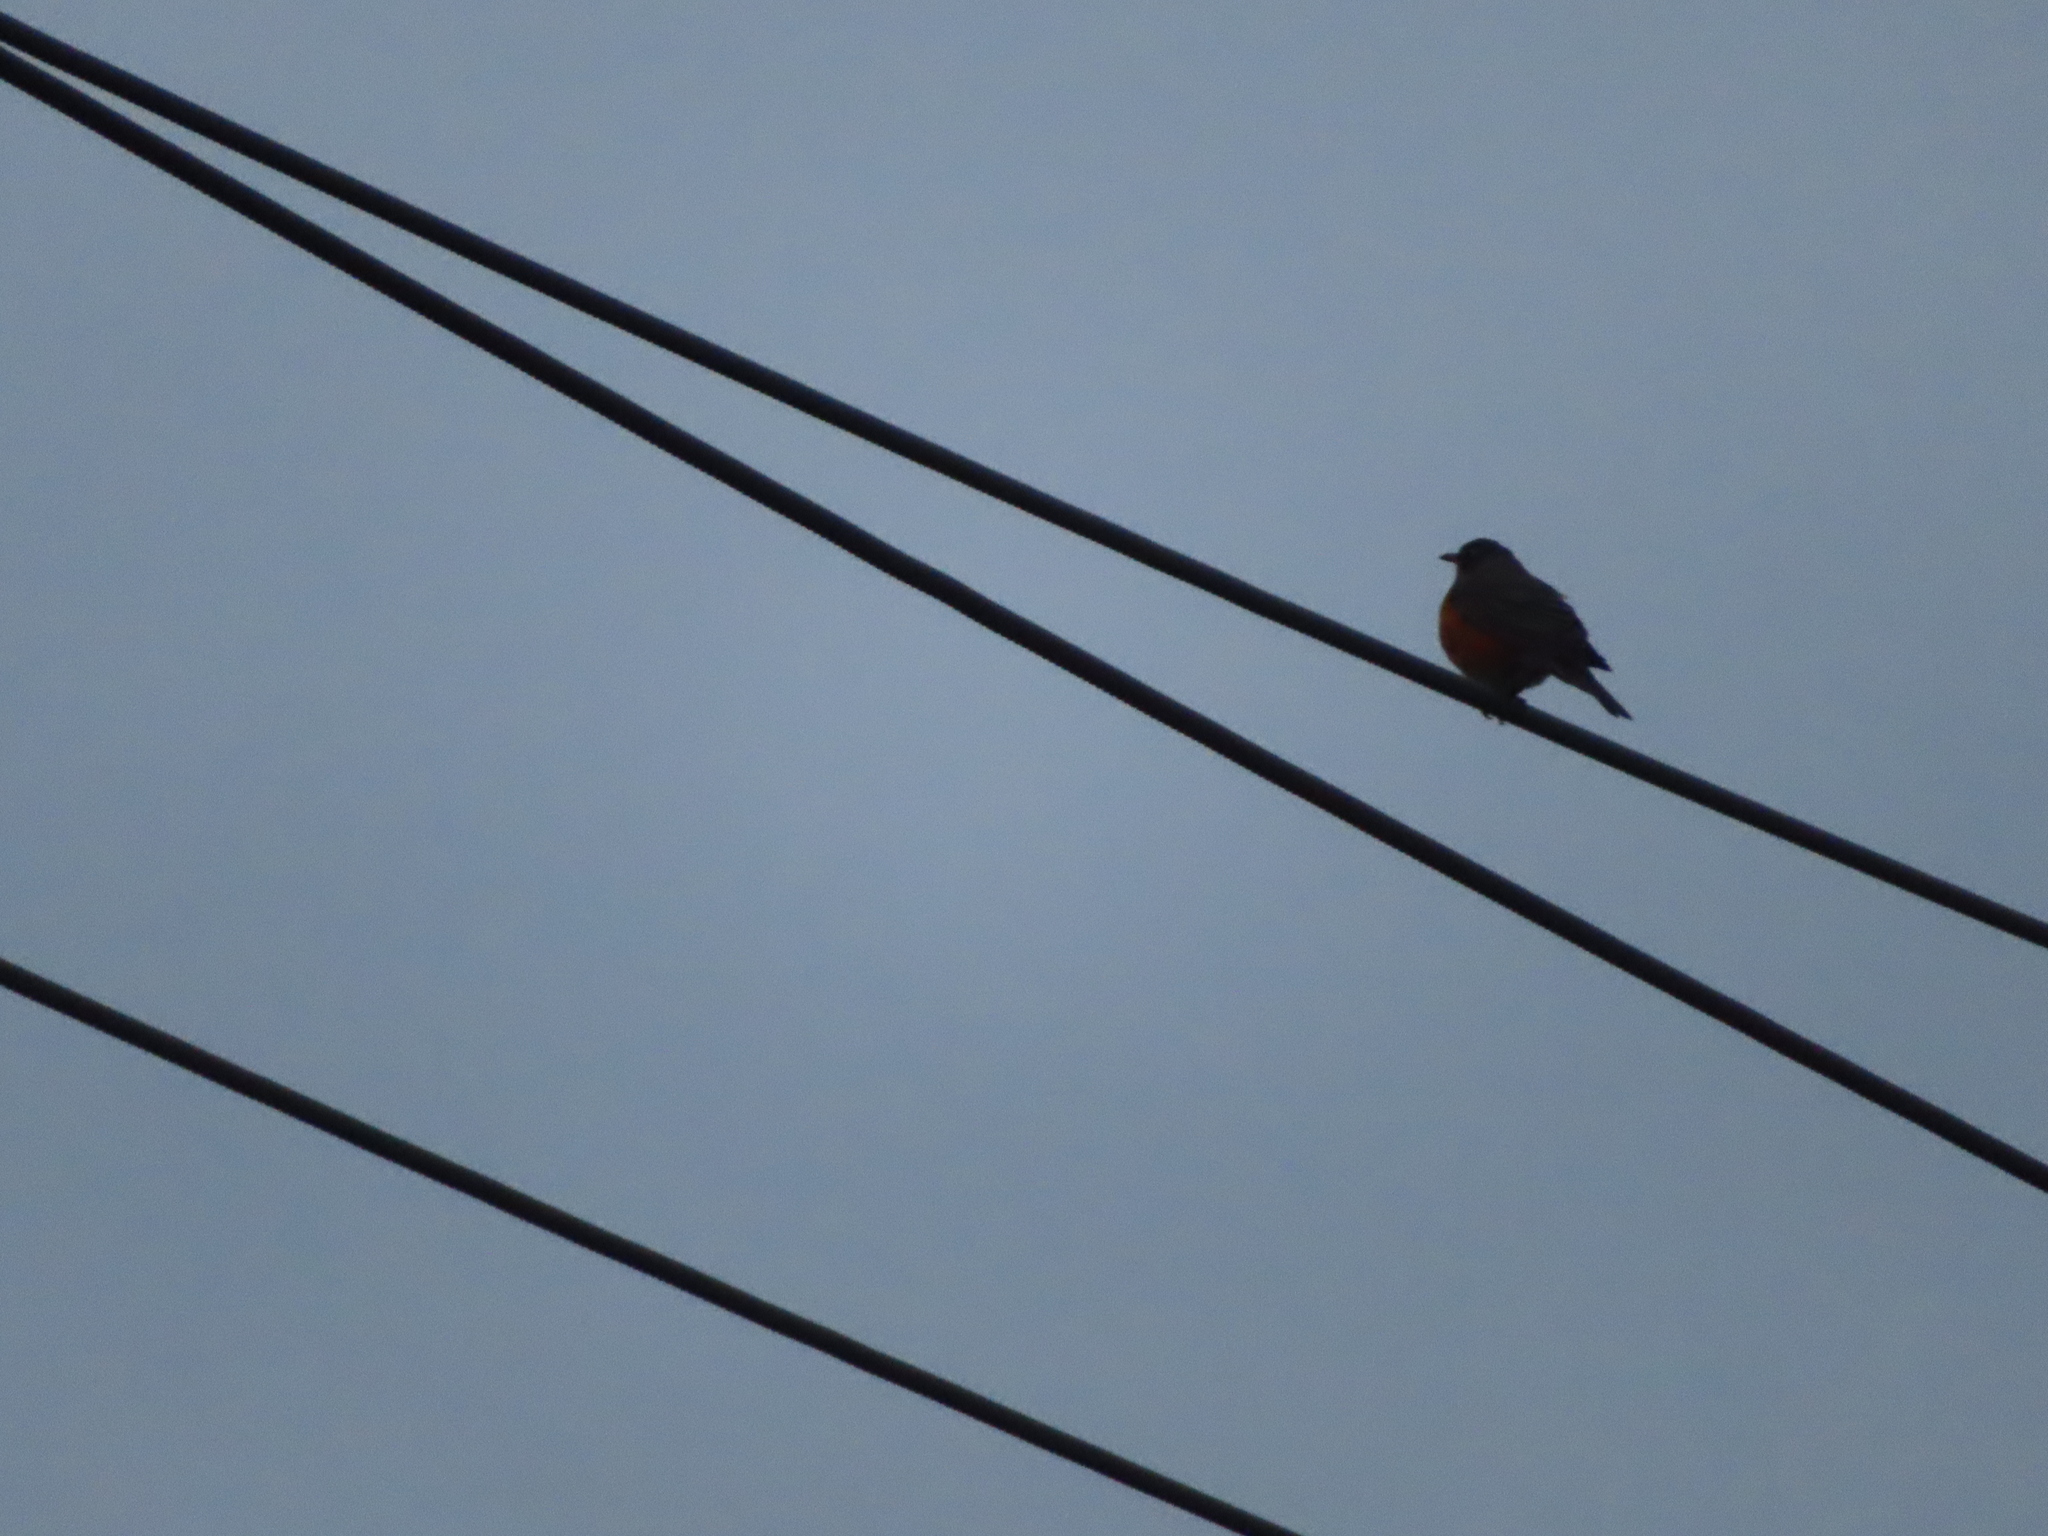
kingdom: Animalia
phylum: Chordata
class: Aves
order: Passeriformes
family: Turdidae
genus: Turdus
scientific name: Turdus migratorius
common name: American robin
